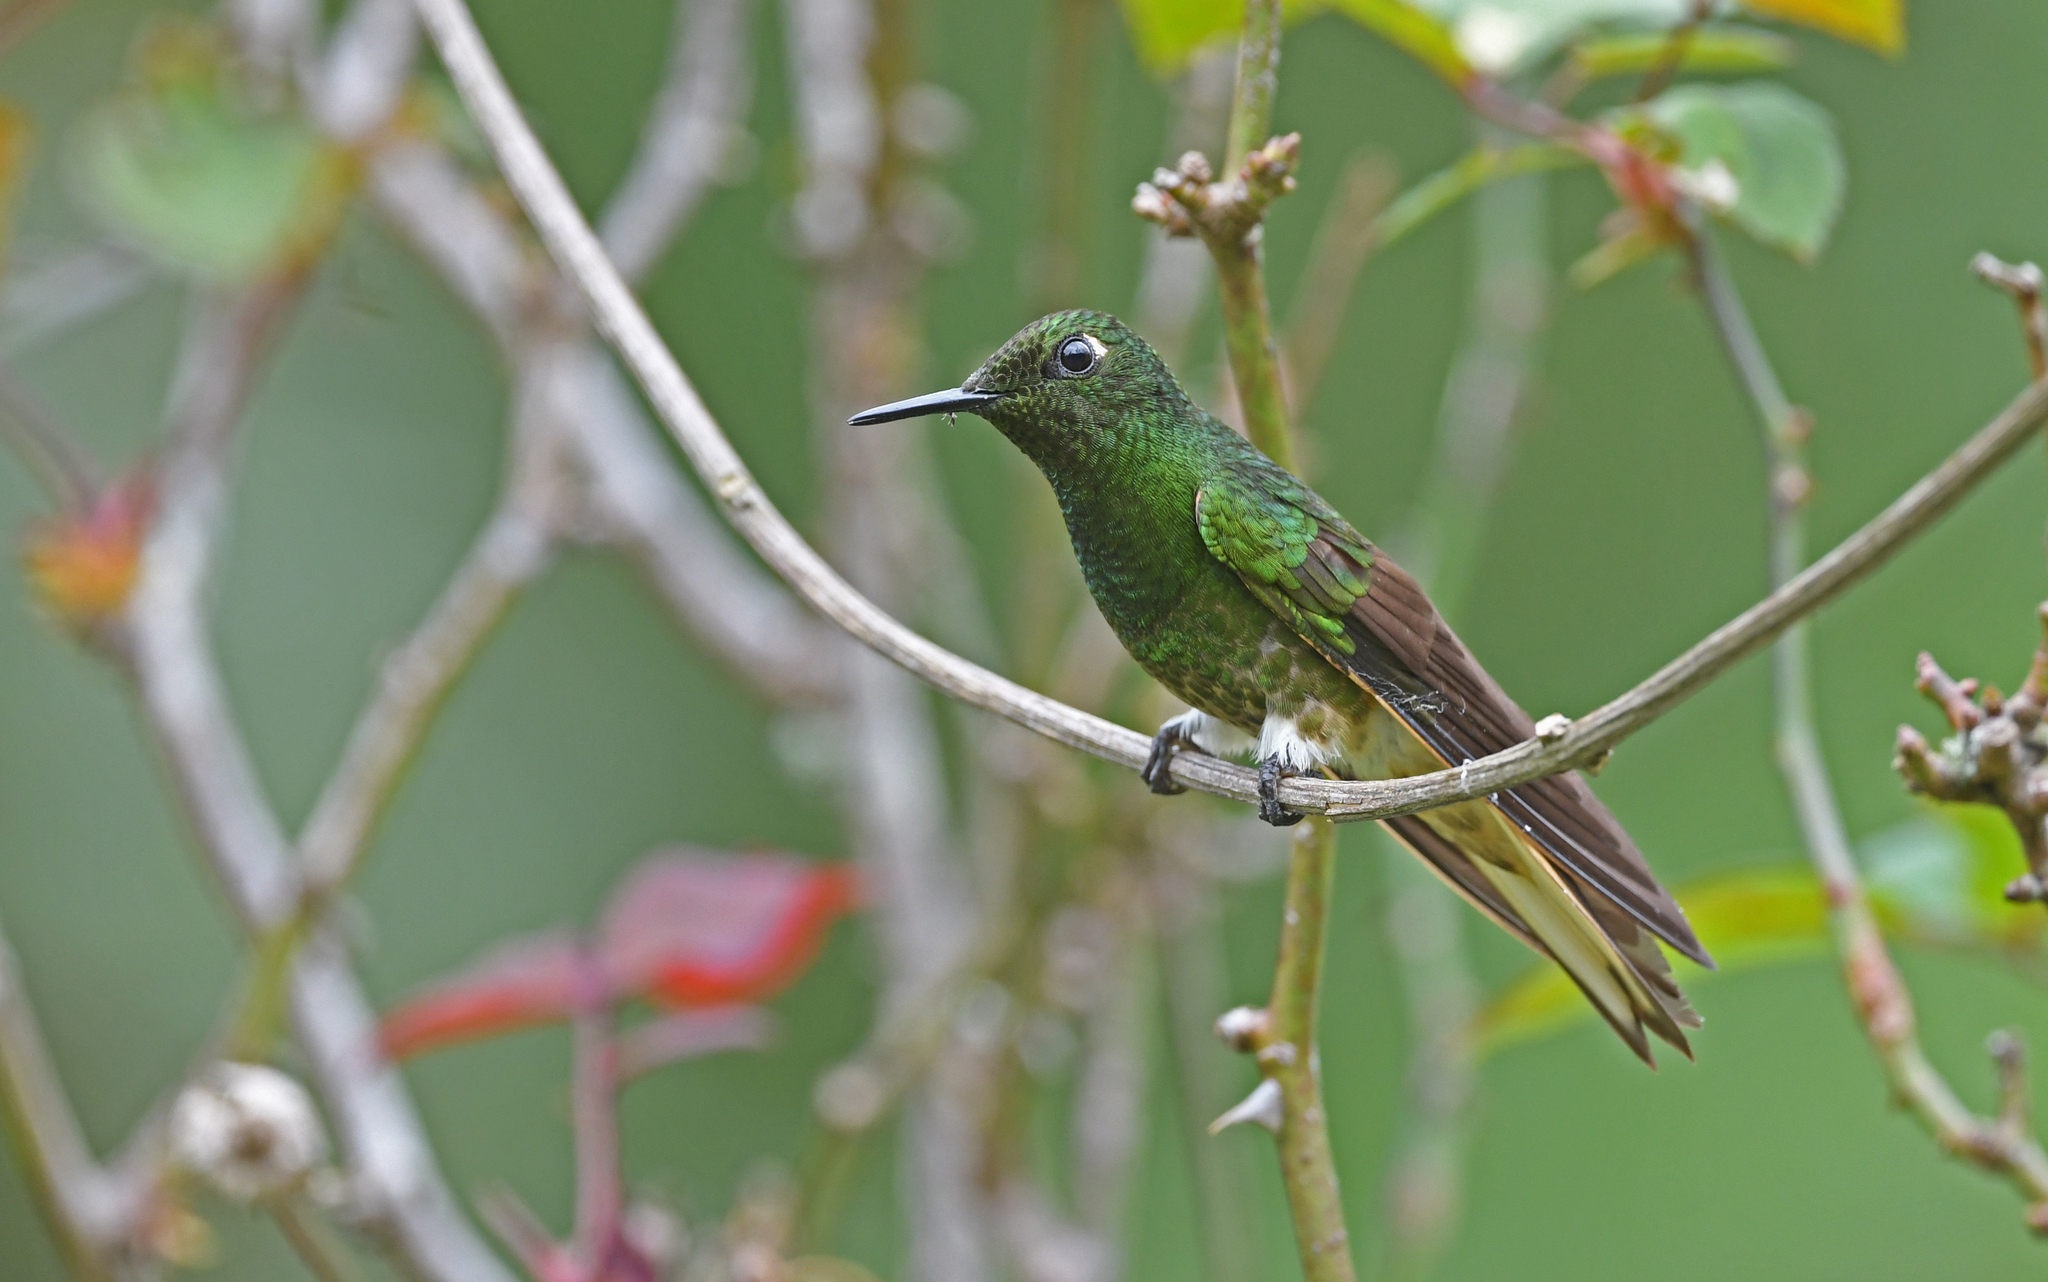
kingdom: Animalia
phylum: Chordata
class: Aves
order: Apodiformes
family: Trochilidae
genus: Boissonneaua
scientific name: Boissonneaua flavescens
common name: Buff-tailed coronet
